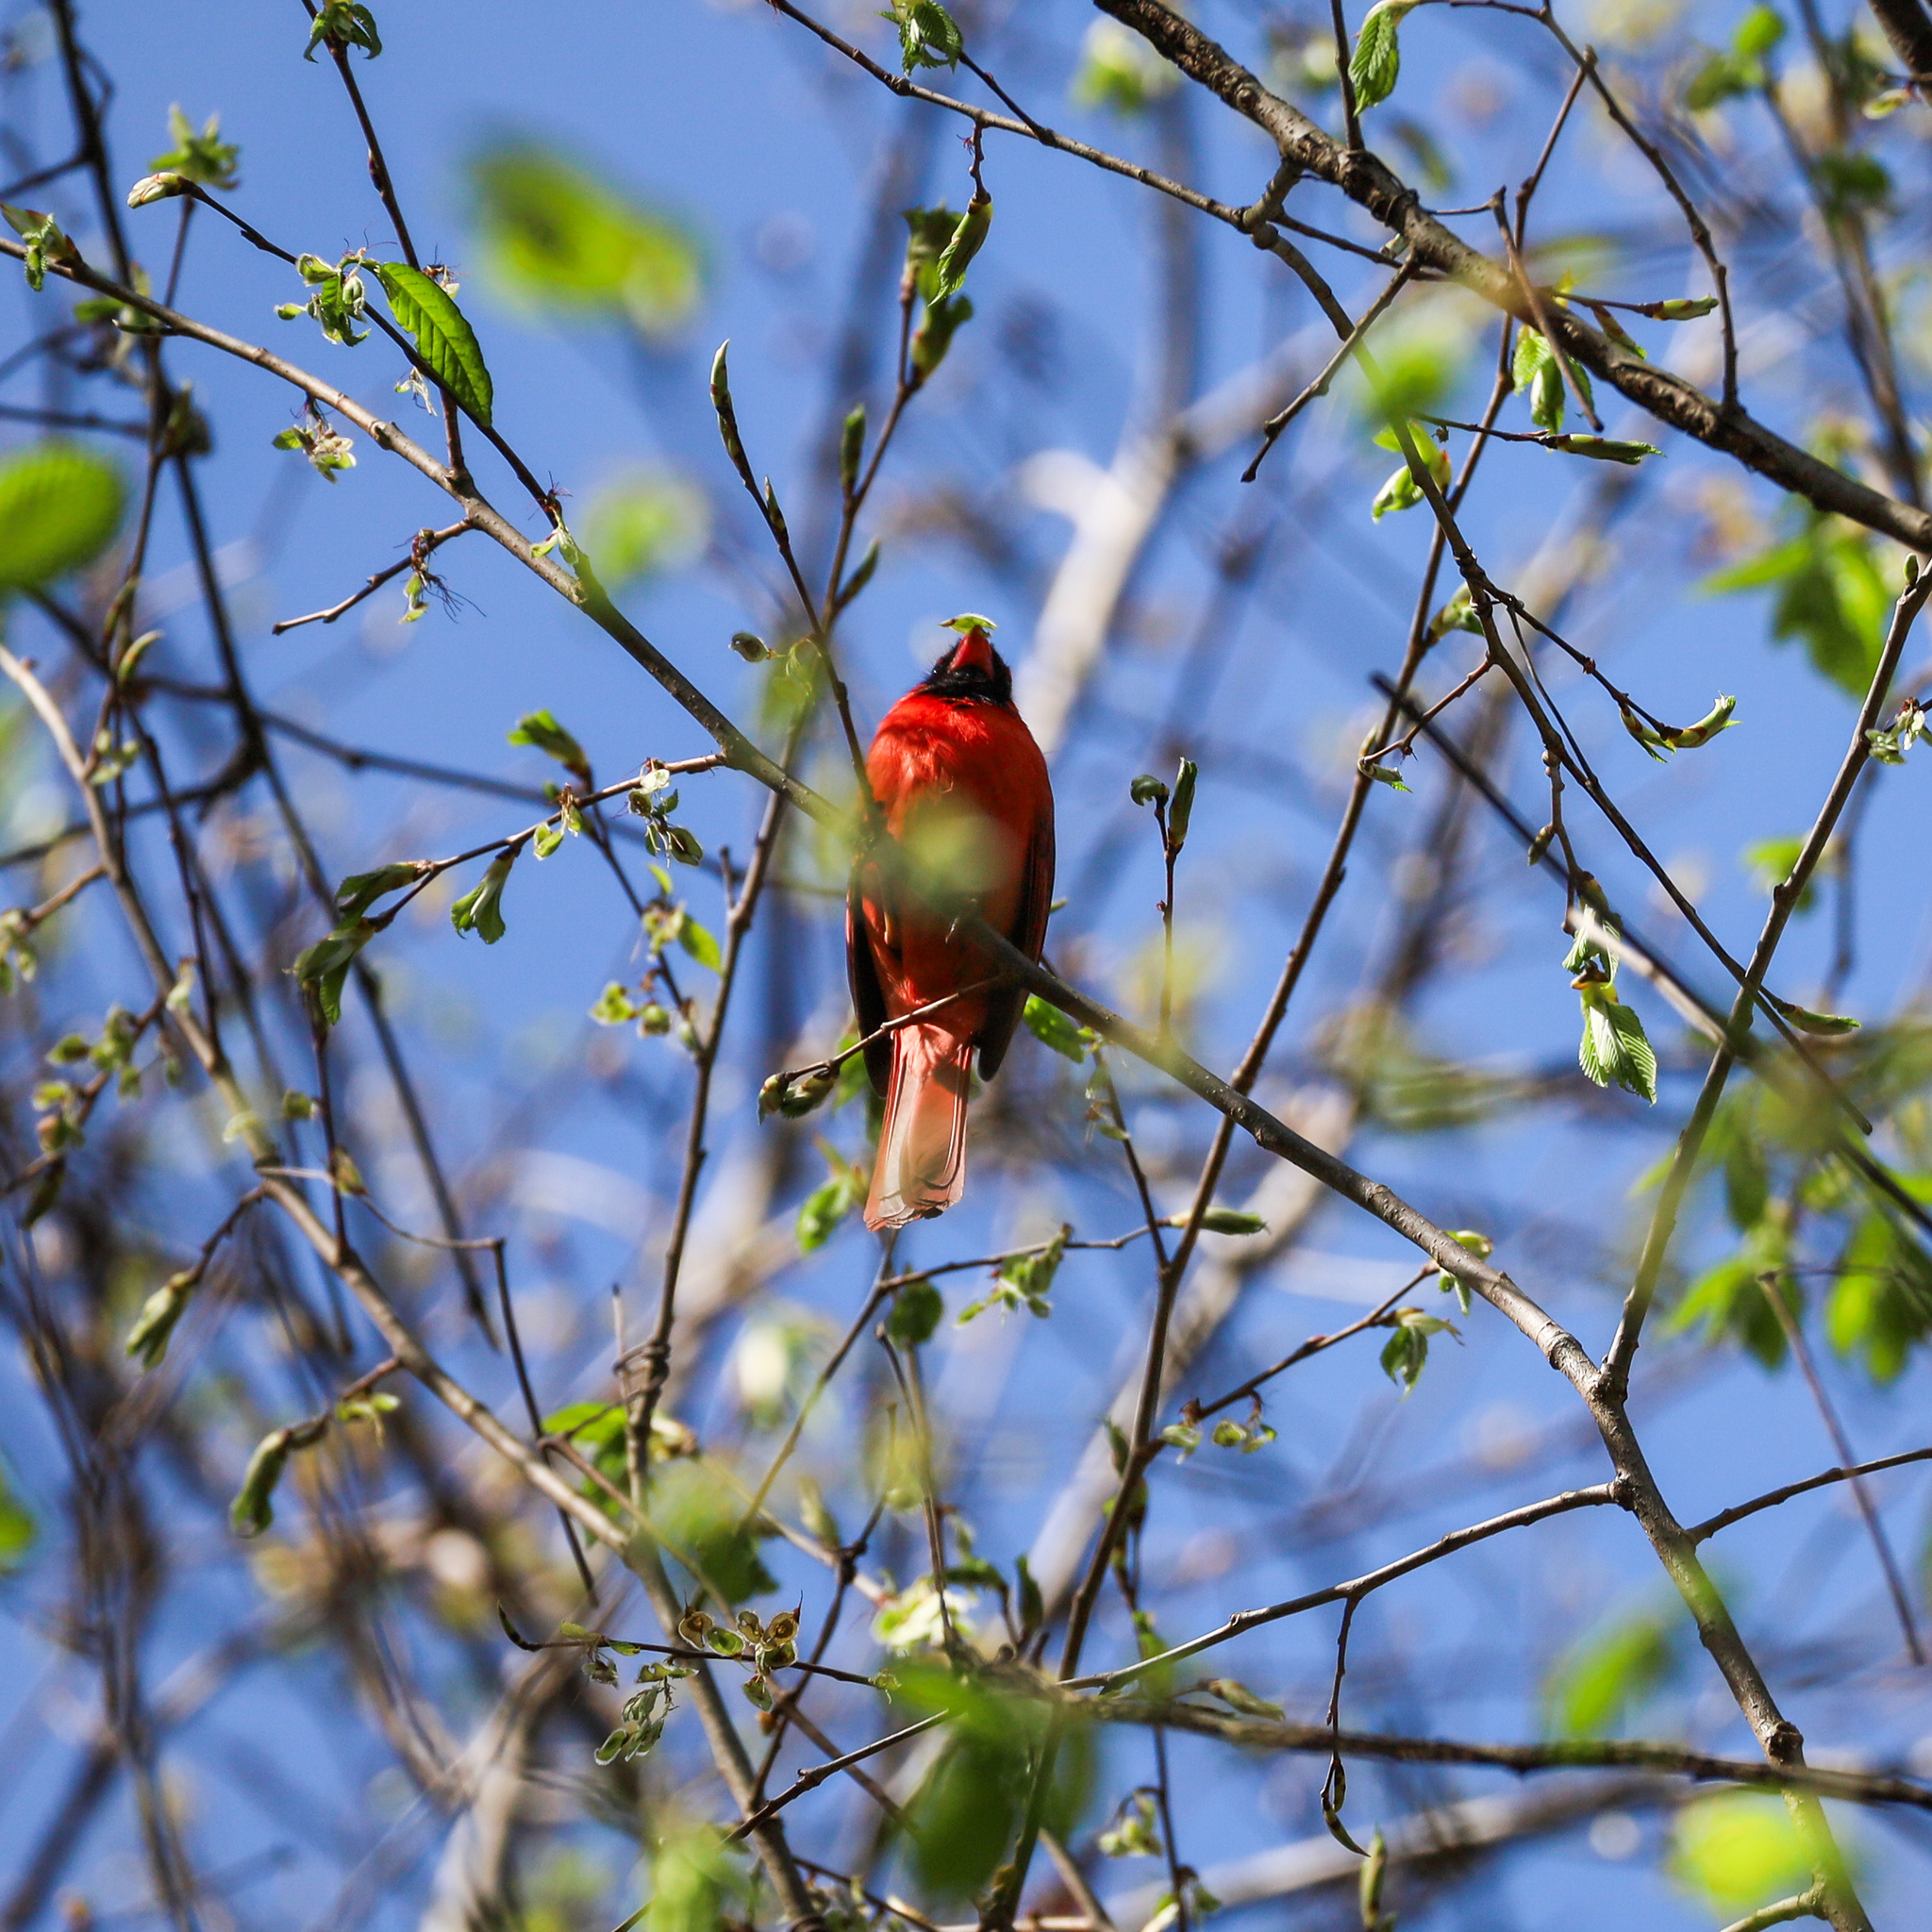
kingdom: Animalia
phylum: Chordata
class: Aves
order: Passeriformes
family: Cardinalidae
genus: Cardinalis
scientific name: Cardinalis cardinalis
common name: Northern cardinal
